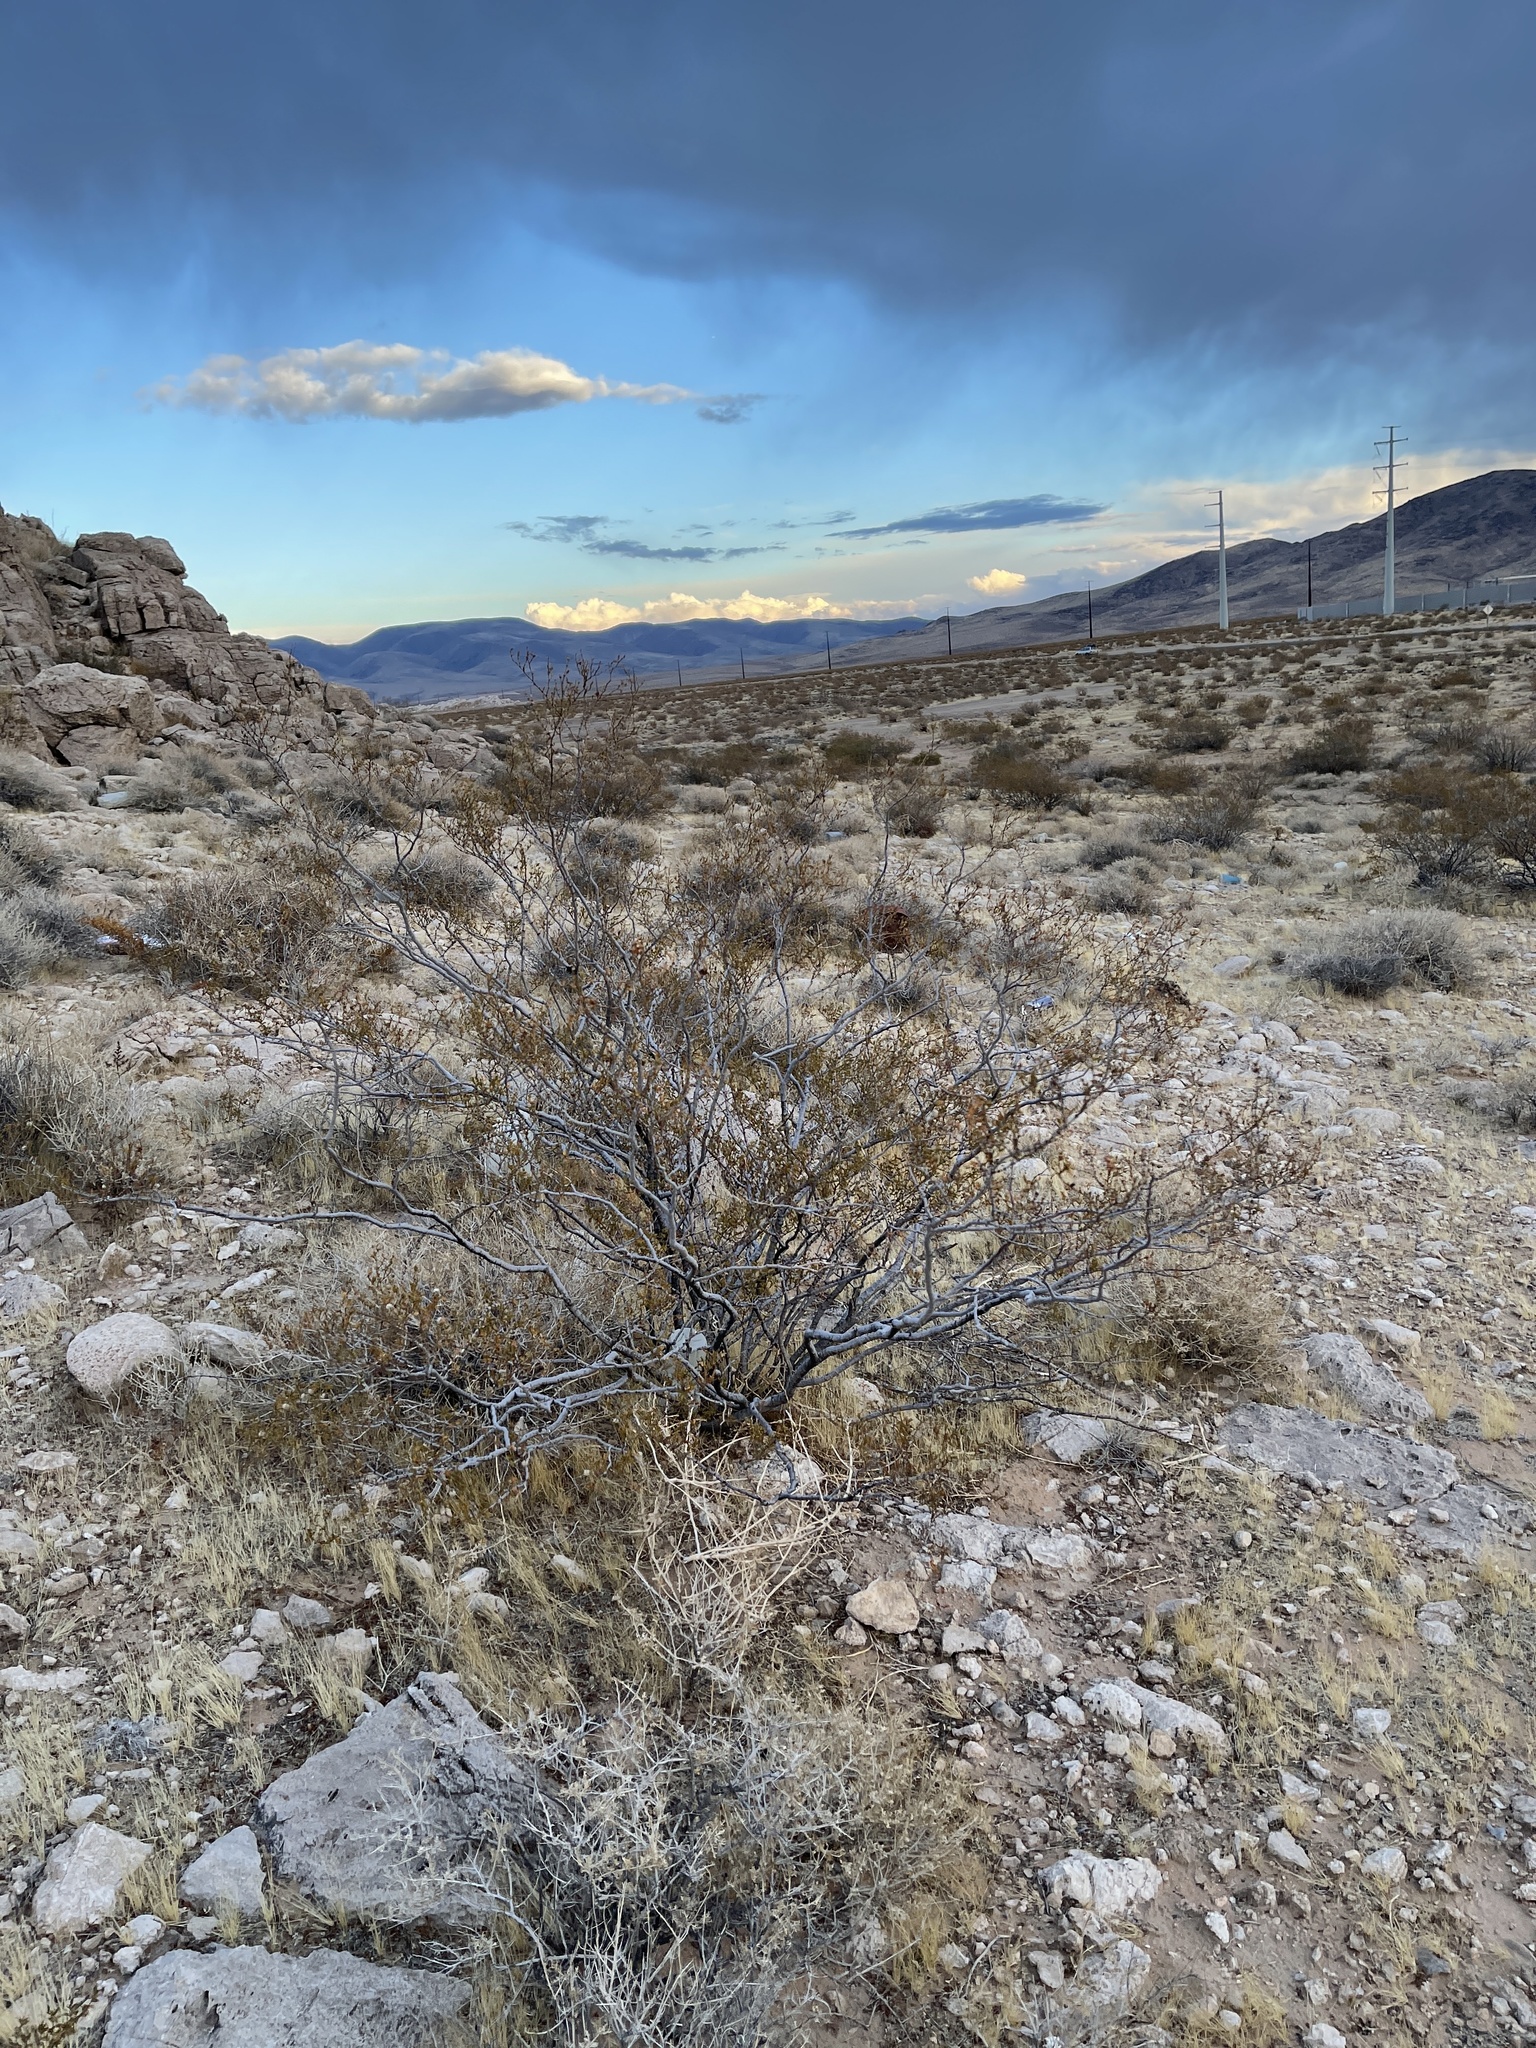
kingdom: Plantae
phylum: Tracheophyta
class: Magnoliopsida
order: Zygophyllales
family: Zygophyllaceae
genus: Larrea
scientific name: Larrea tridentata
